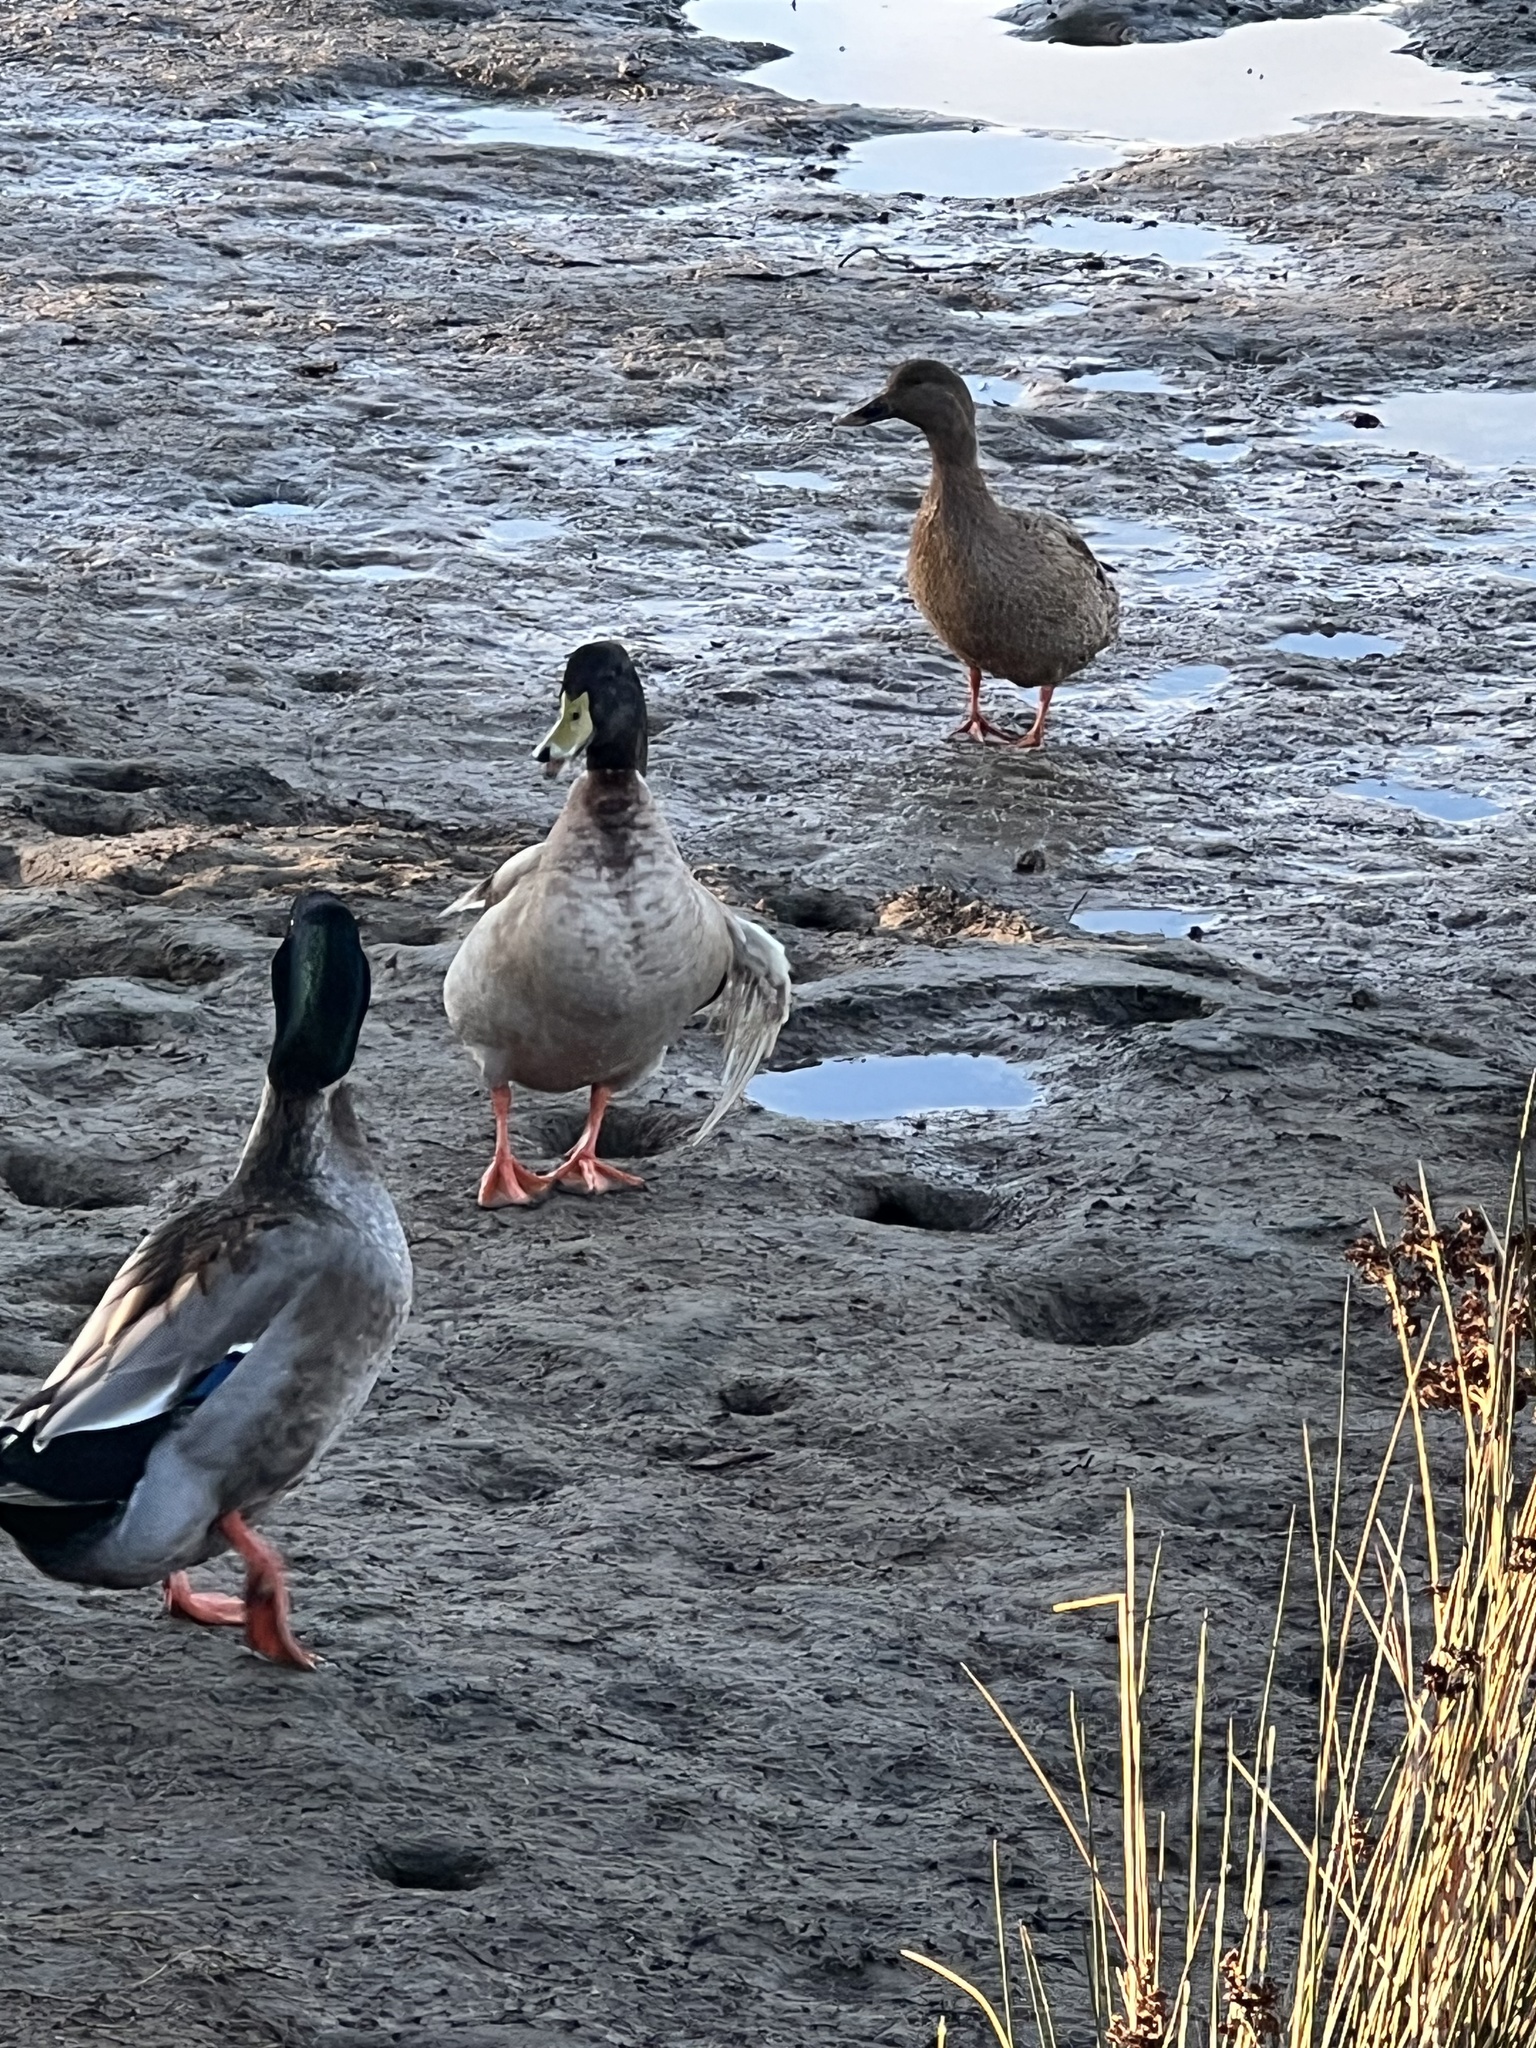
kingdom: Animalia
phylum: Chordata
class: Aves
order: Anseriformes
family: Anatidae
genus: Anas
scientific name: Anas platyrhynchos
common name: Mallard
